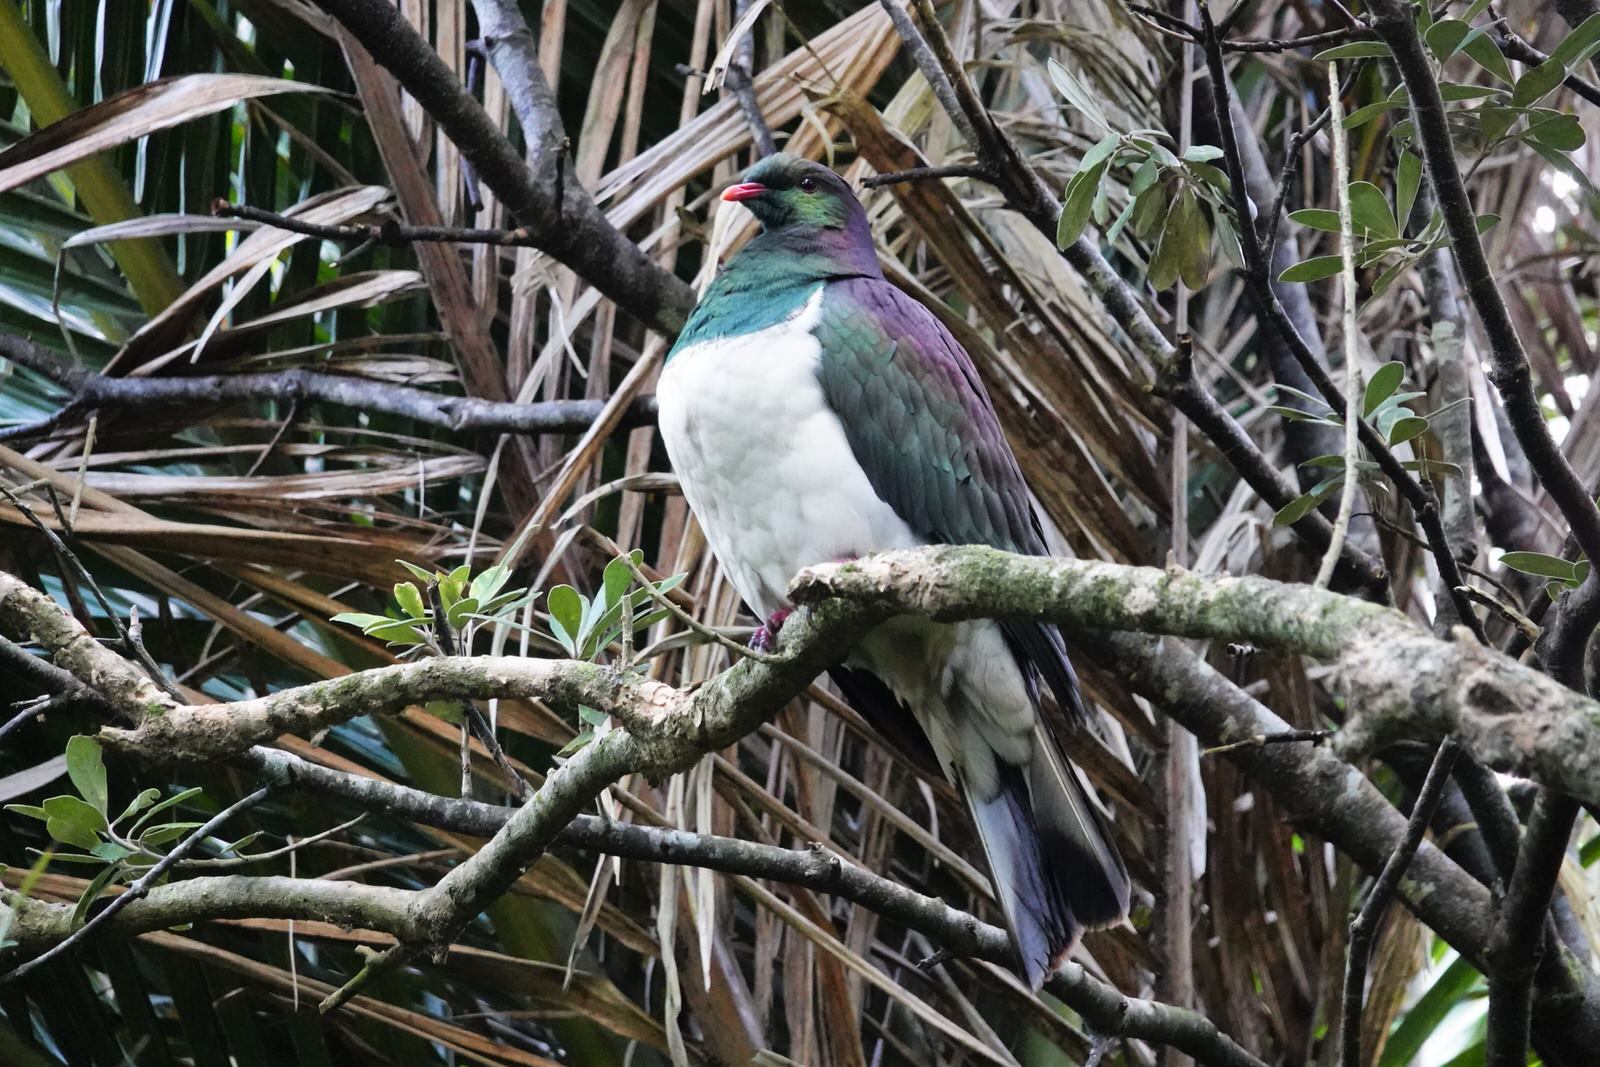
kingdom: Animalia
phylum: Chordata
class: Aves
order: Columbiformes
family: Columbidae
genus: Hemiphaga
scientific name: Hemiphaga novaeseelandiae
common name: New zealand pigeon
